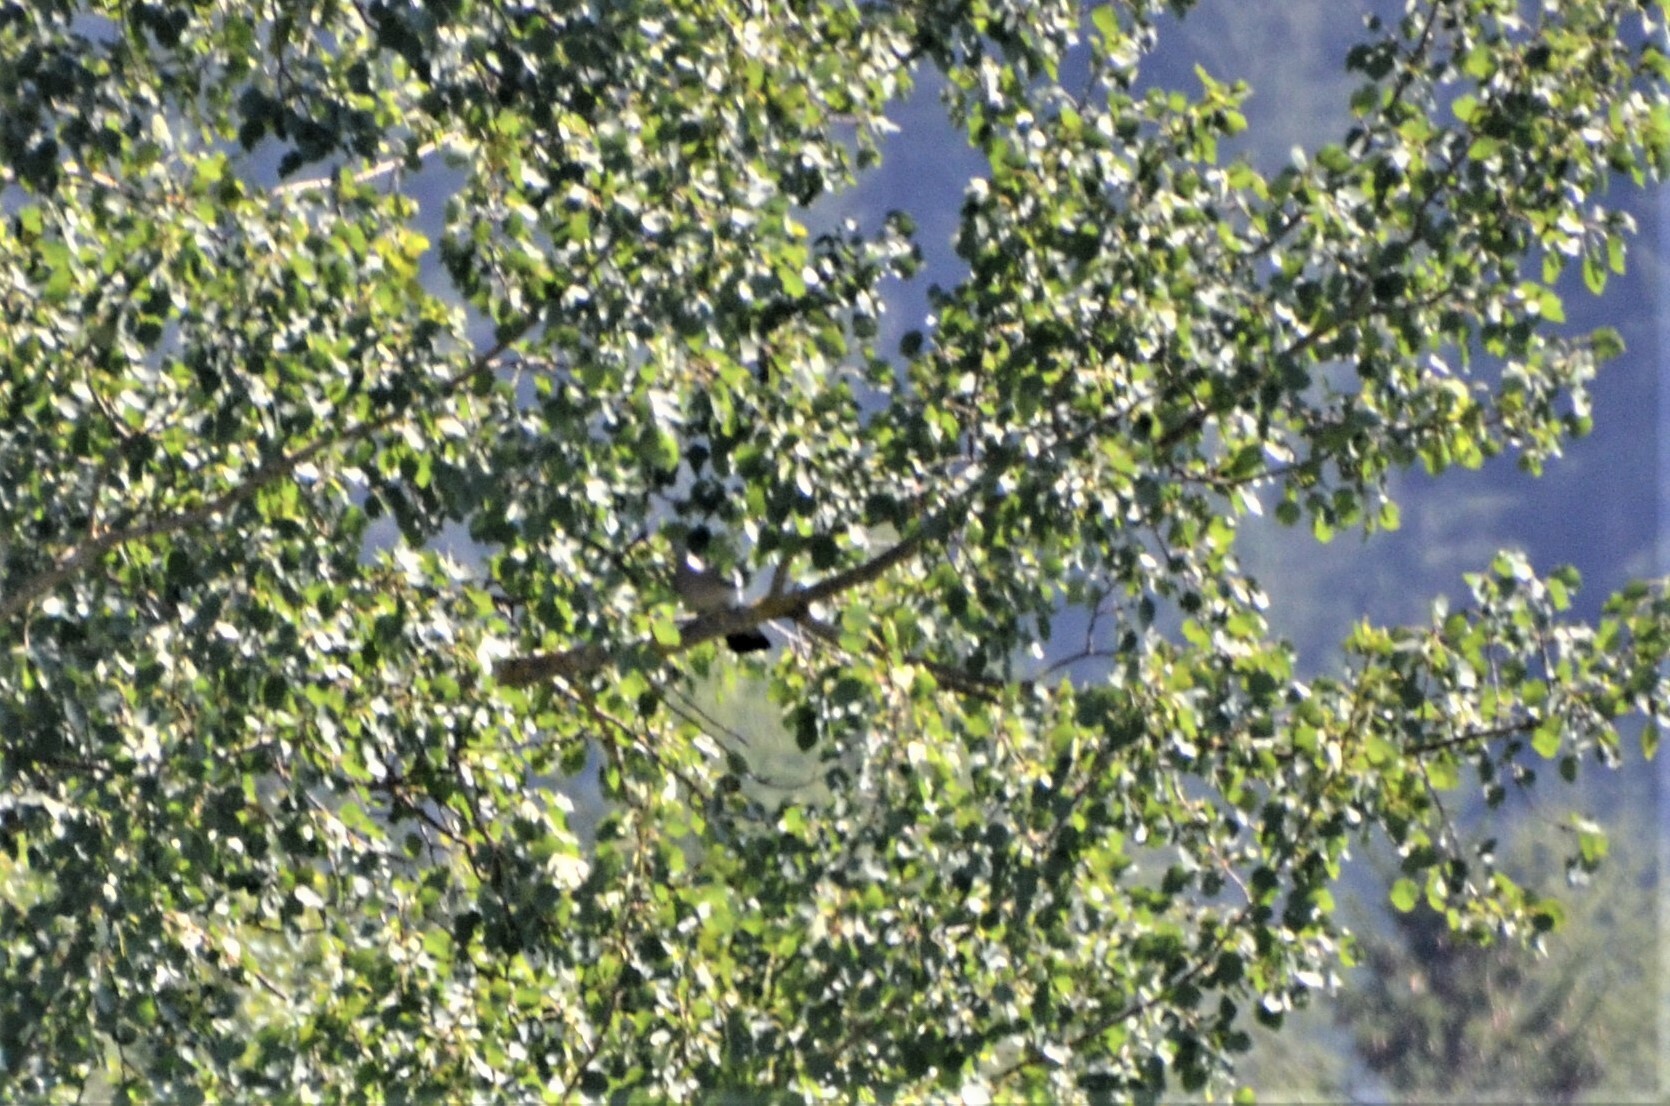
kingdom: Animalia
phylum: Chordata
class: Aves
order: Columbiformes
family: Columbidae
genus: Columba
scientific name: Columba palumbus
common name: Common wood pigeon
